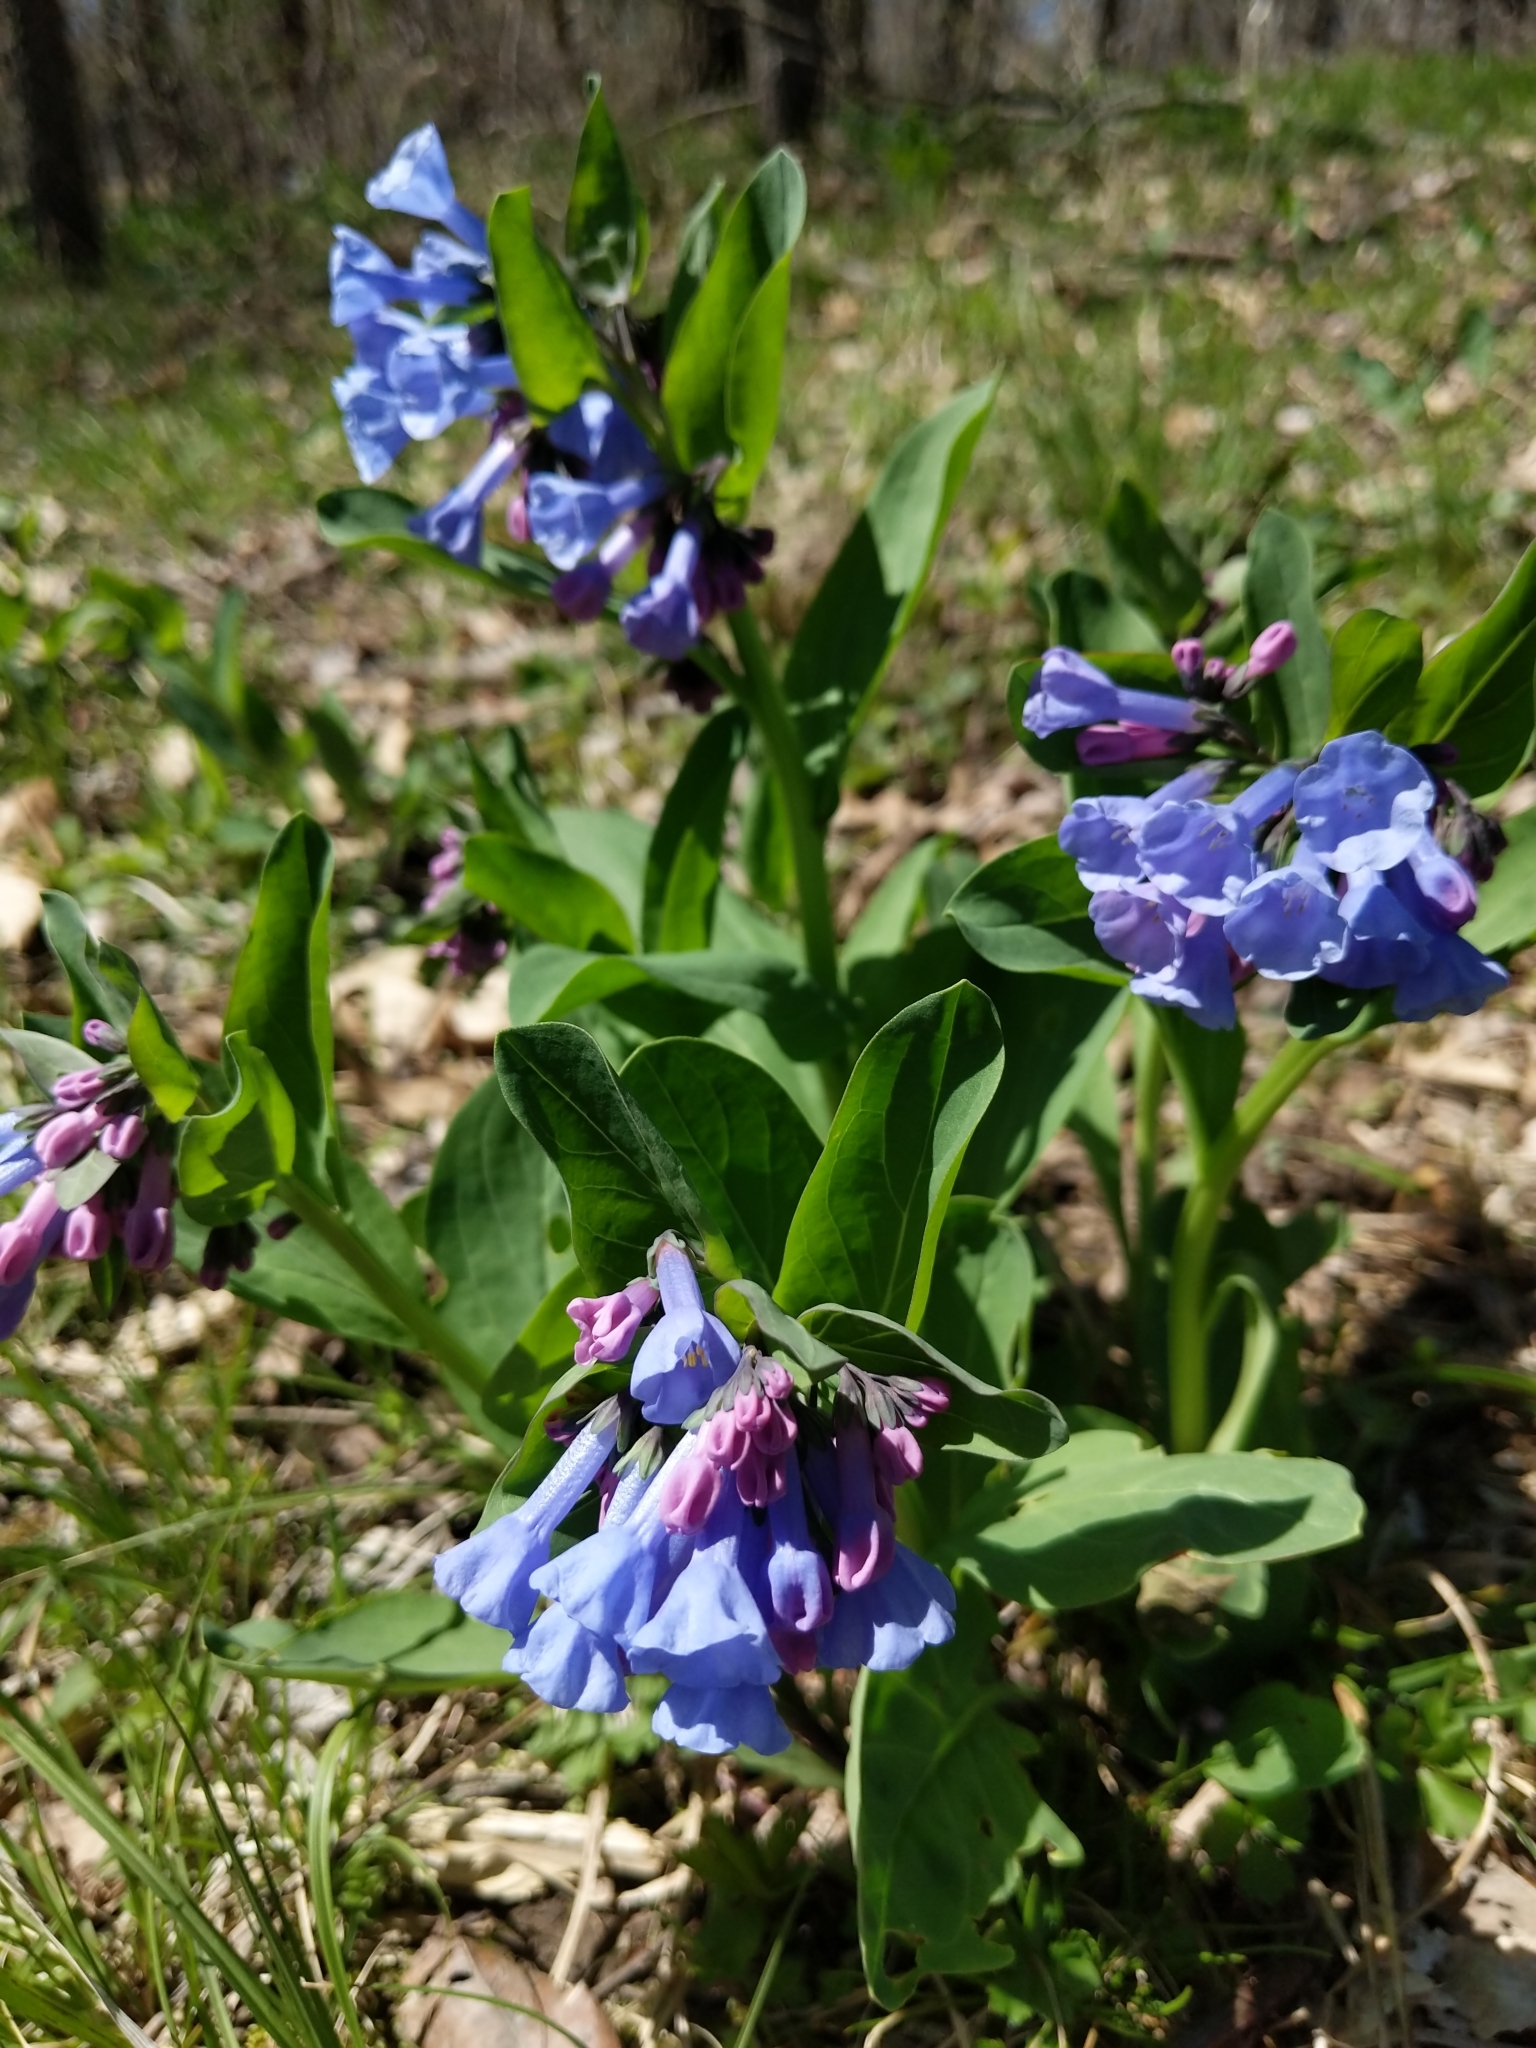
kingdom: Plantae
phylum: Tracheophyta
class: Magnoliopsida
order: Boraginales
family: Boraginaceae
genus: Mertensia
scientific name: Mertensia virginica
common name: Virginia bluebells
